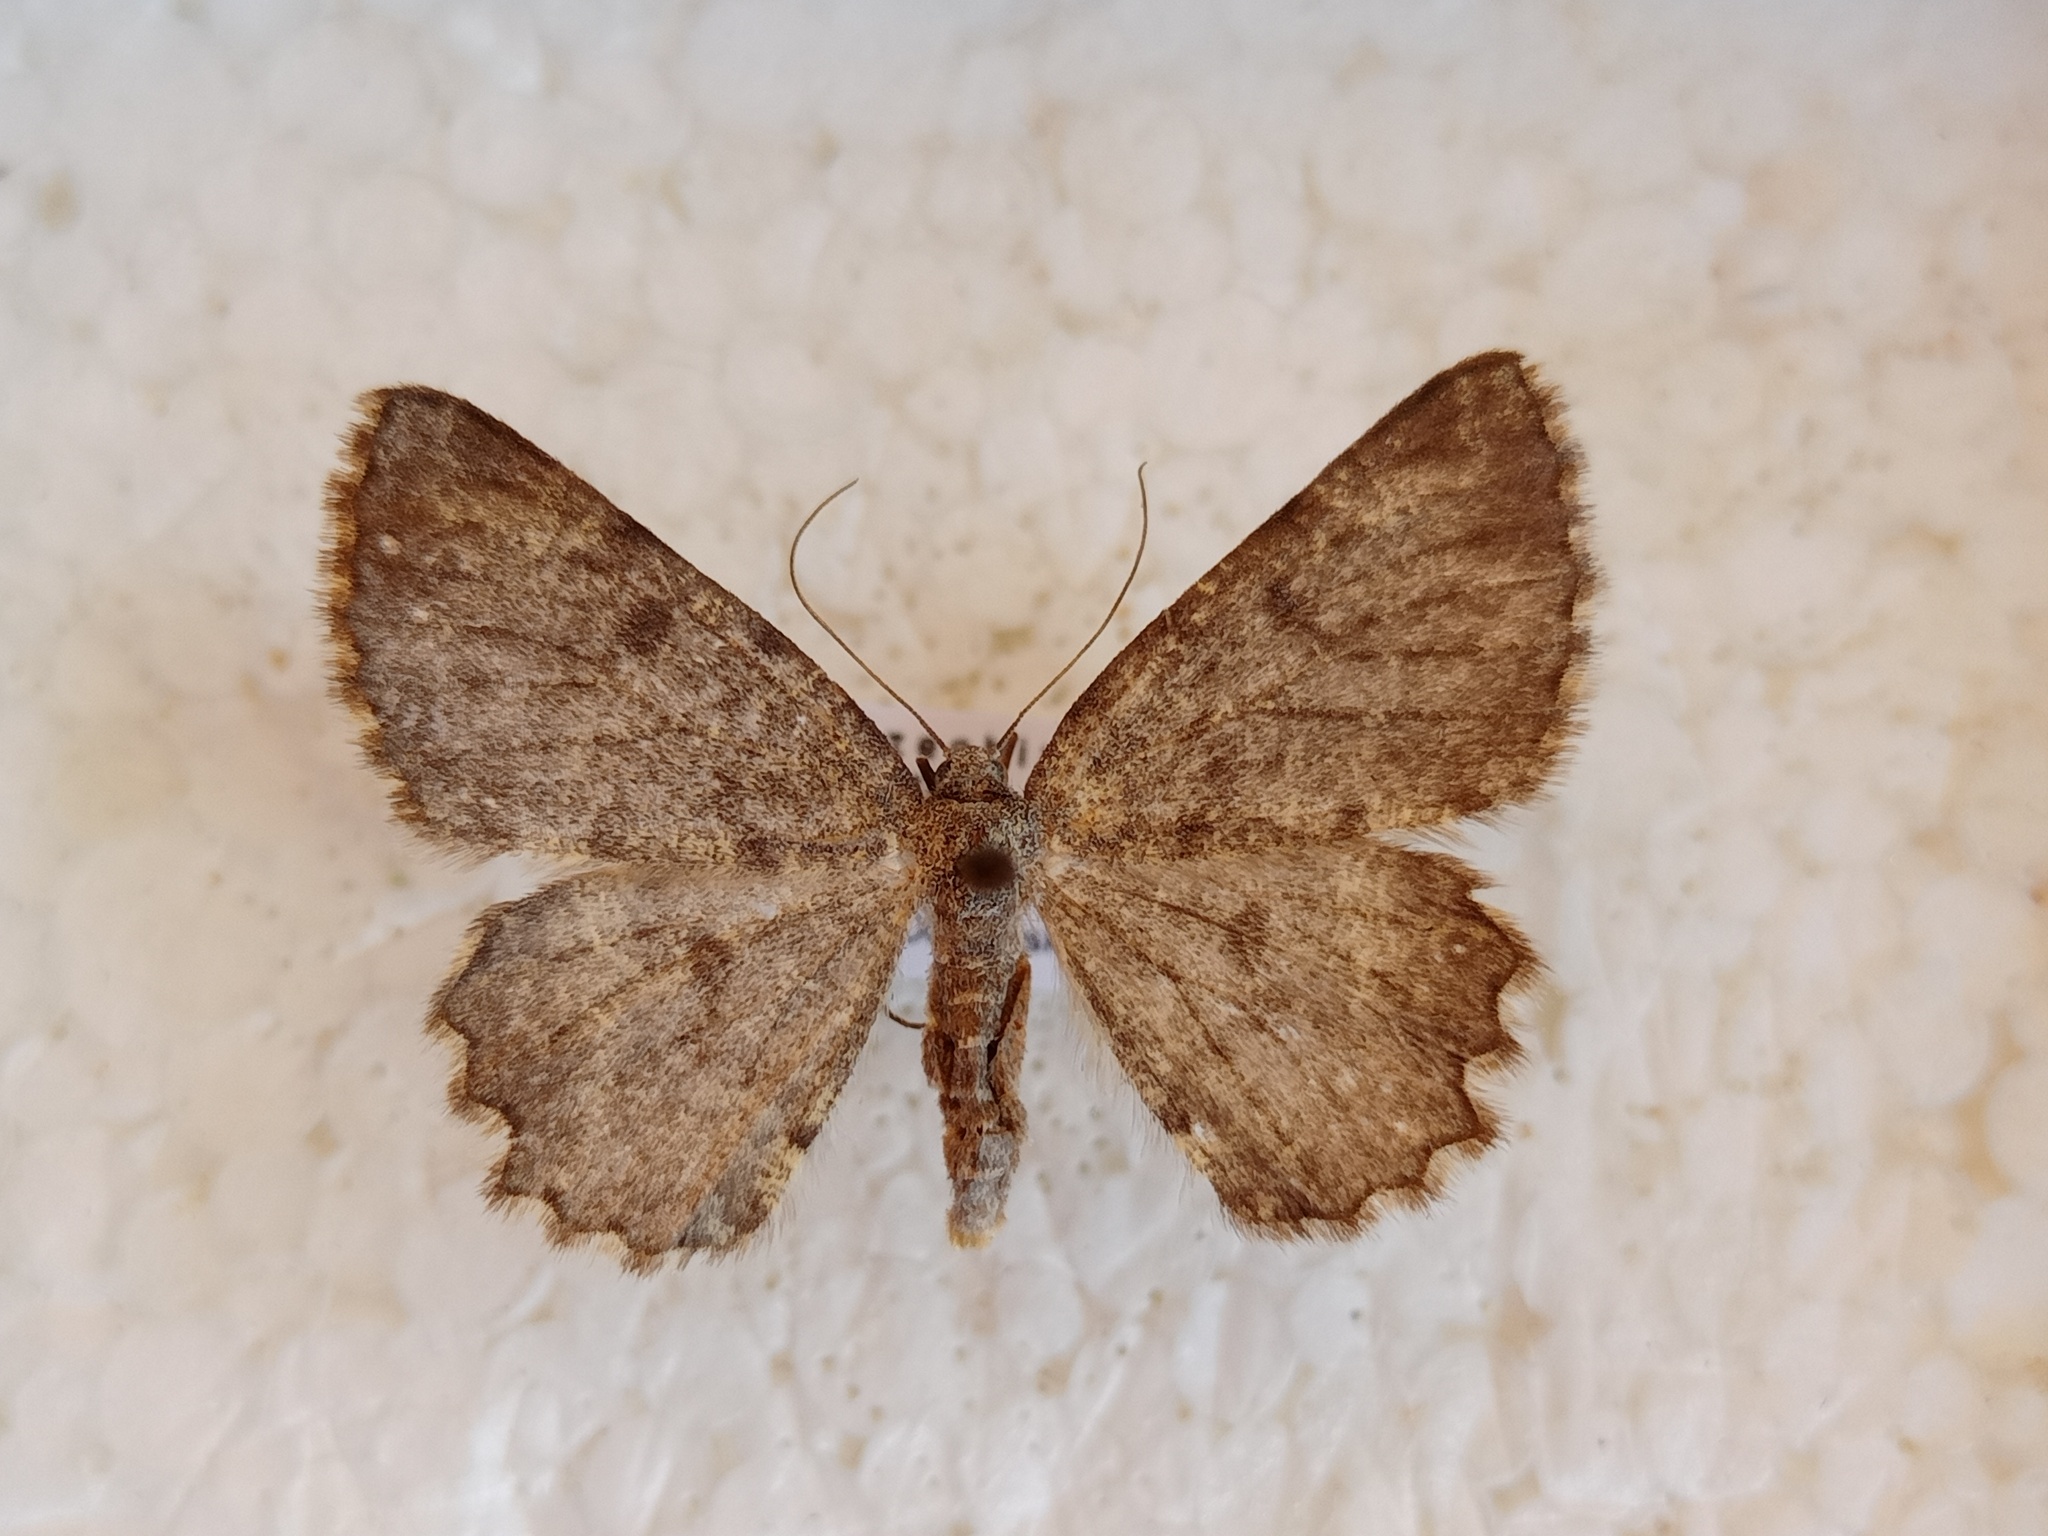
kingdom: Animalia
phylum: Arthropoda
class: Insecta
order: Lepidoptera
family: Geometridae
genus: Charissa
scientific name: Charissa supinaria
